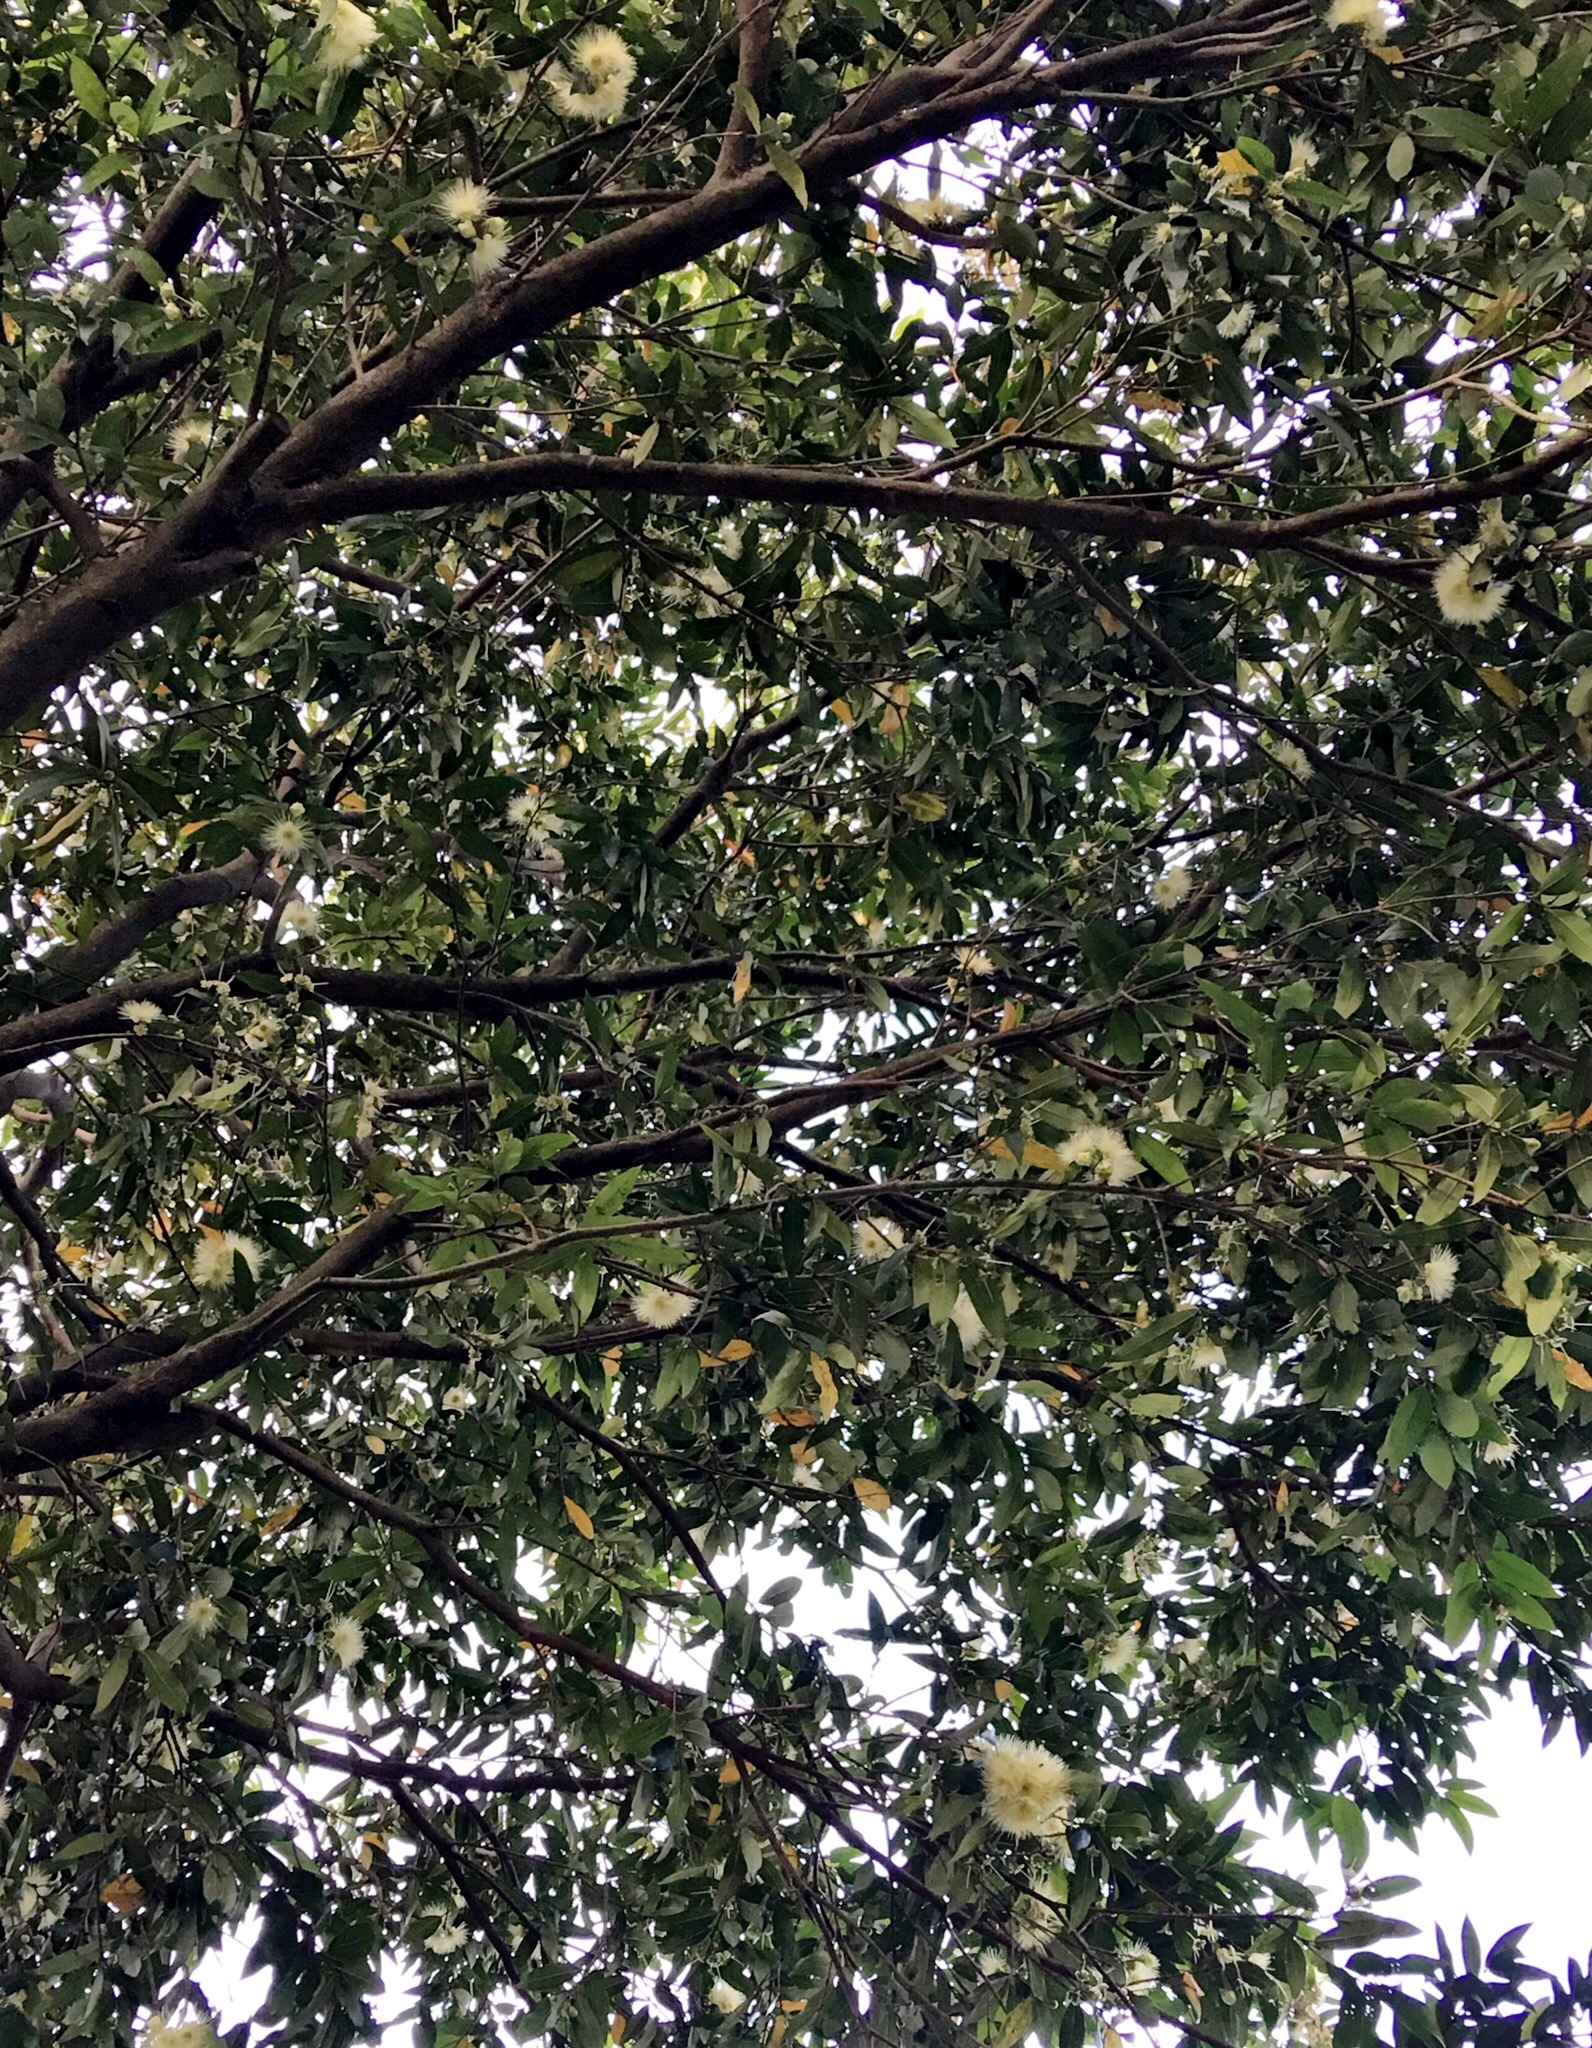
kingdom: Plantae
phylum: Tracheophyta
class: Magnoliopsida
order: Myrtales
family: Myrtaceae
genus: Syzygium
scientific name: Syzygium jambos
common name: Malabar plum
